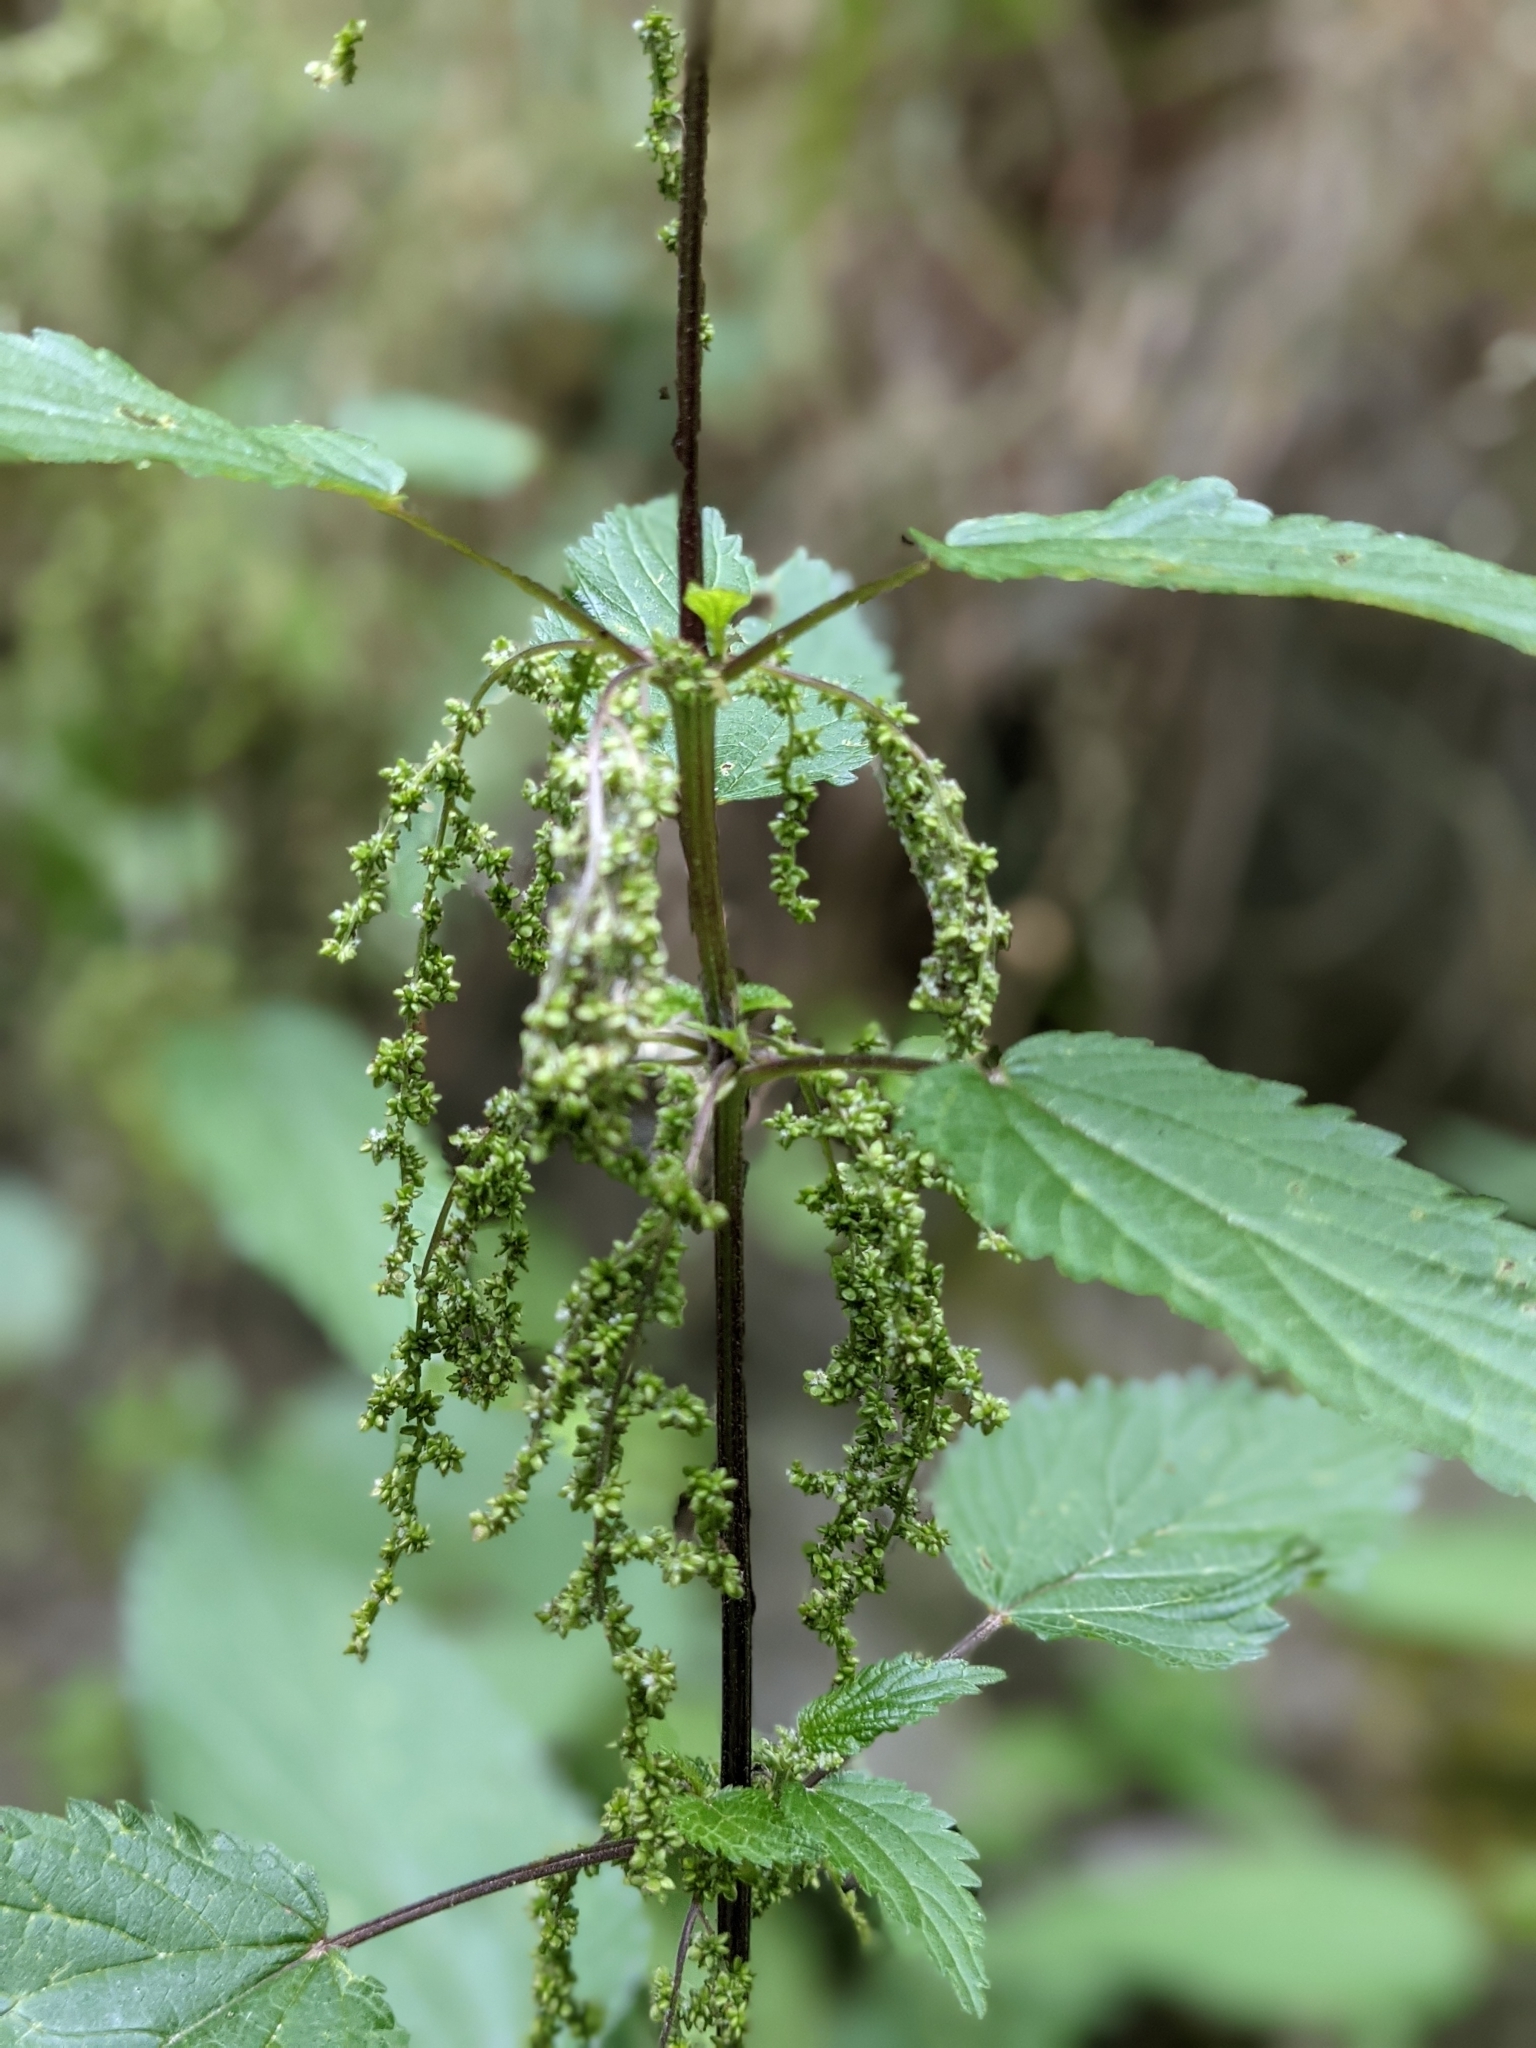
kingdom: Plantae
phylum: Tracheophyta
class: Magnoliopsida
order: Rosales
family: Urticaceae
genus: Urtica
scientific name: Urtica dioica
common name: Common nettle
